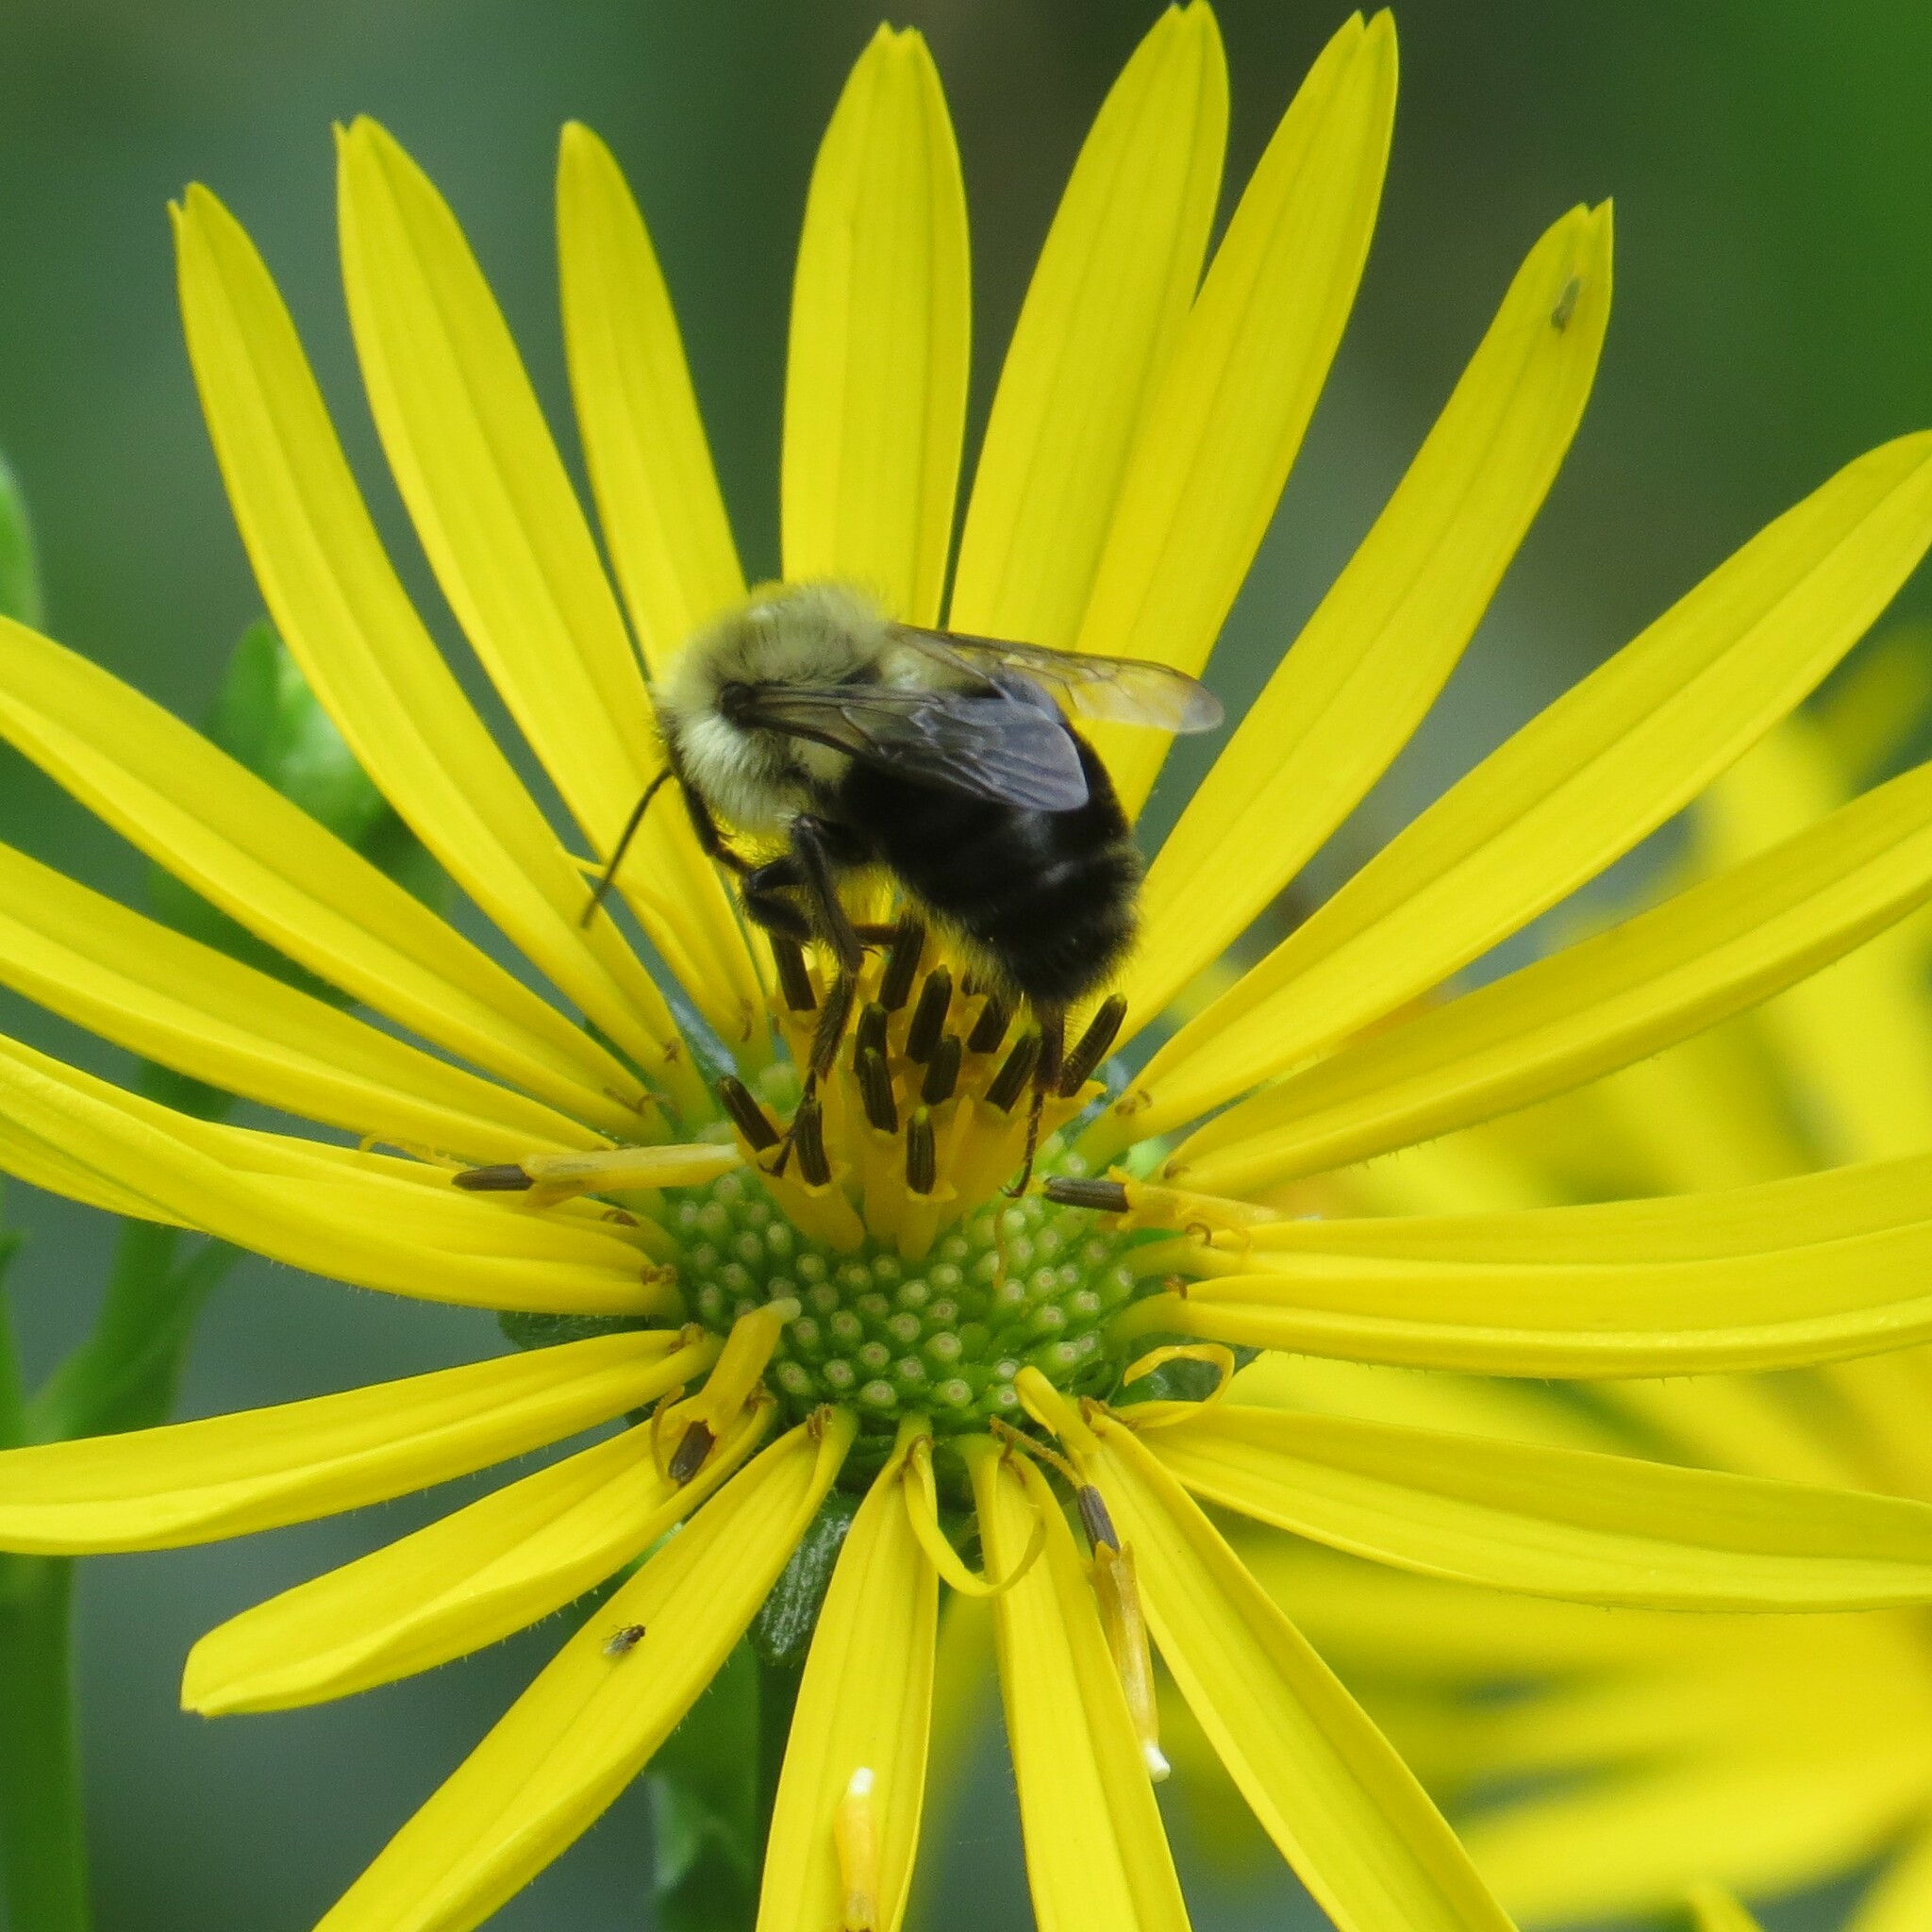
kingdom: Animalia
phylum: Arthropoda
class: Insecta
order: Hymenoptera
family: Apidae
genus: Bombus
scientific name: Bombus impatiens
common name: Common eastern bumble bee
